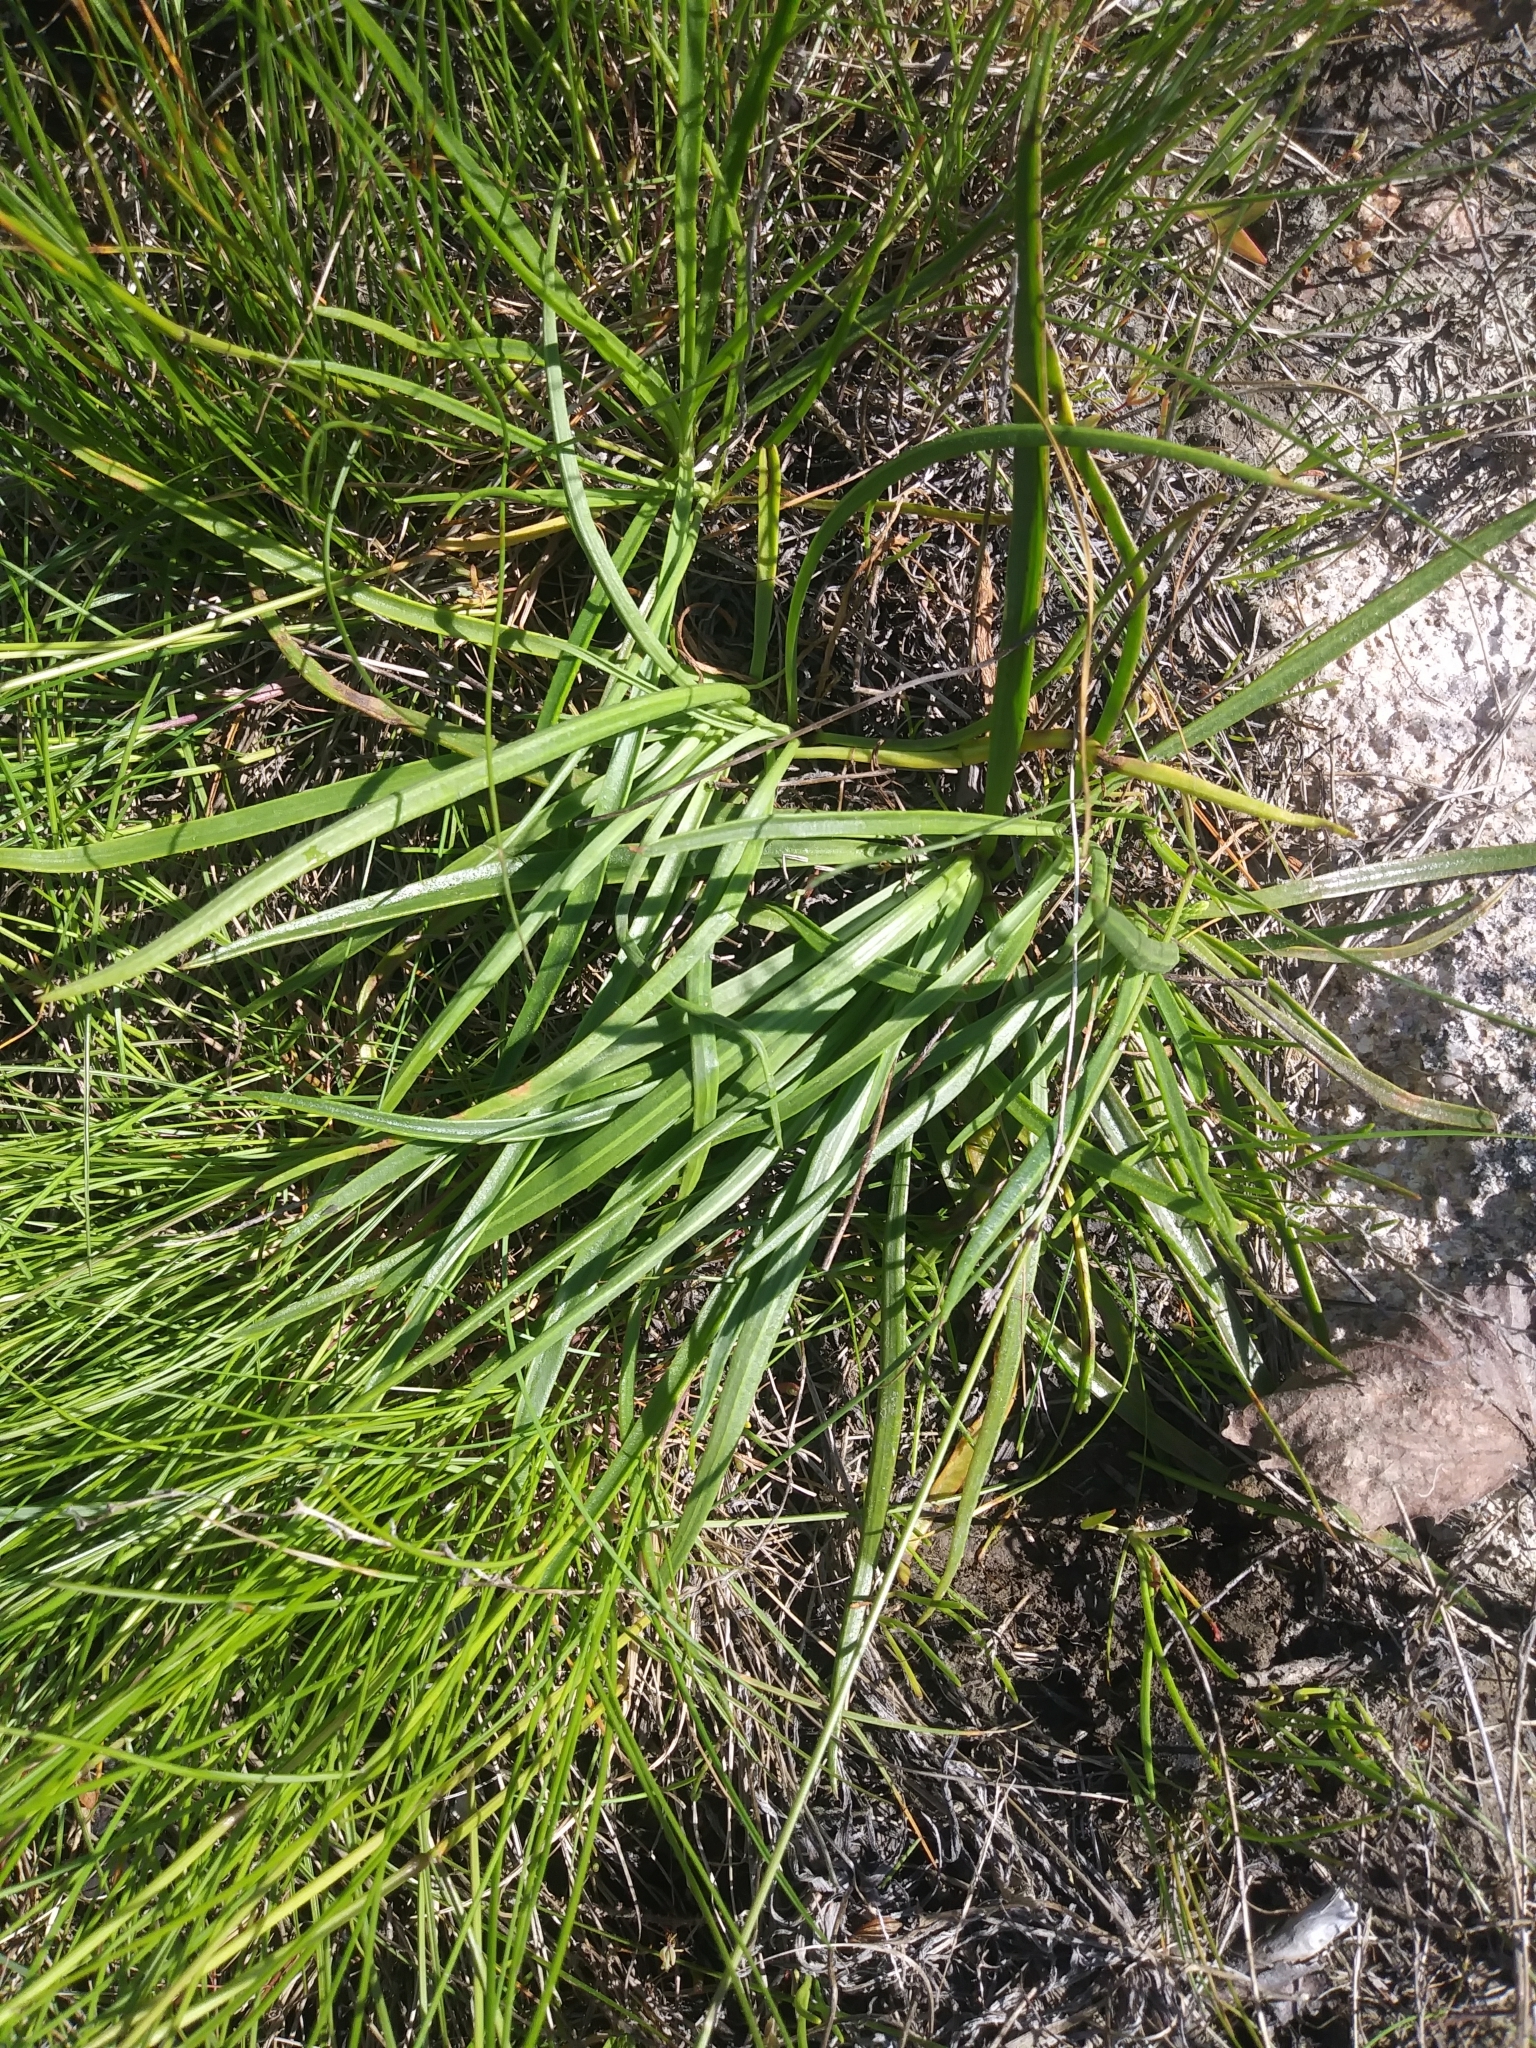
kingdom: Plantae
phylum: Tracheophyta
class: Magnoliopsida
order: Lamiales
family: Plantaginaceae
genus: Plantago
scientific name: Plantago maritima
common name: Sea plantain
